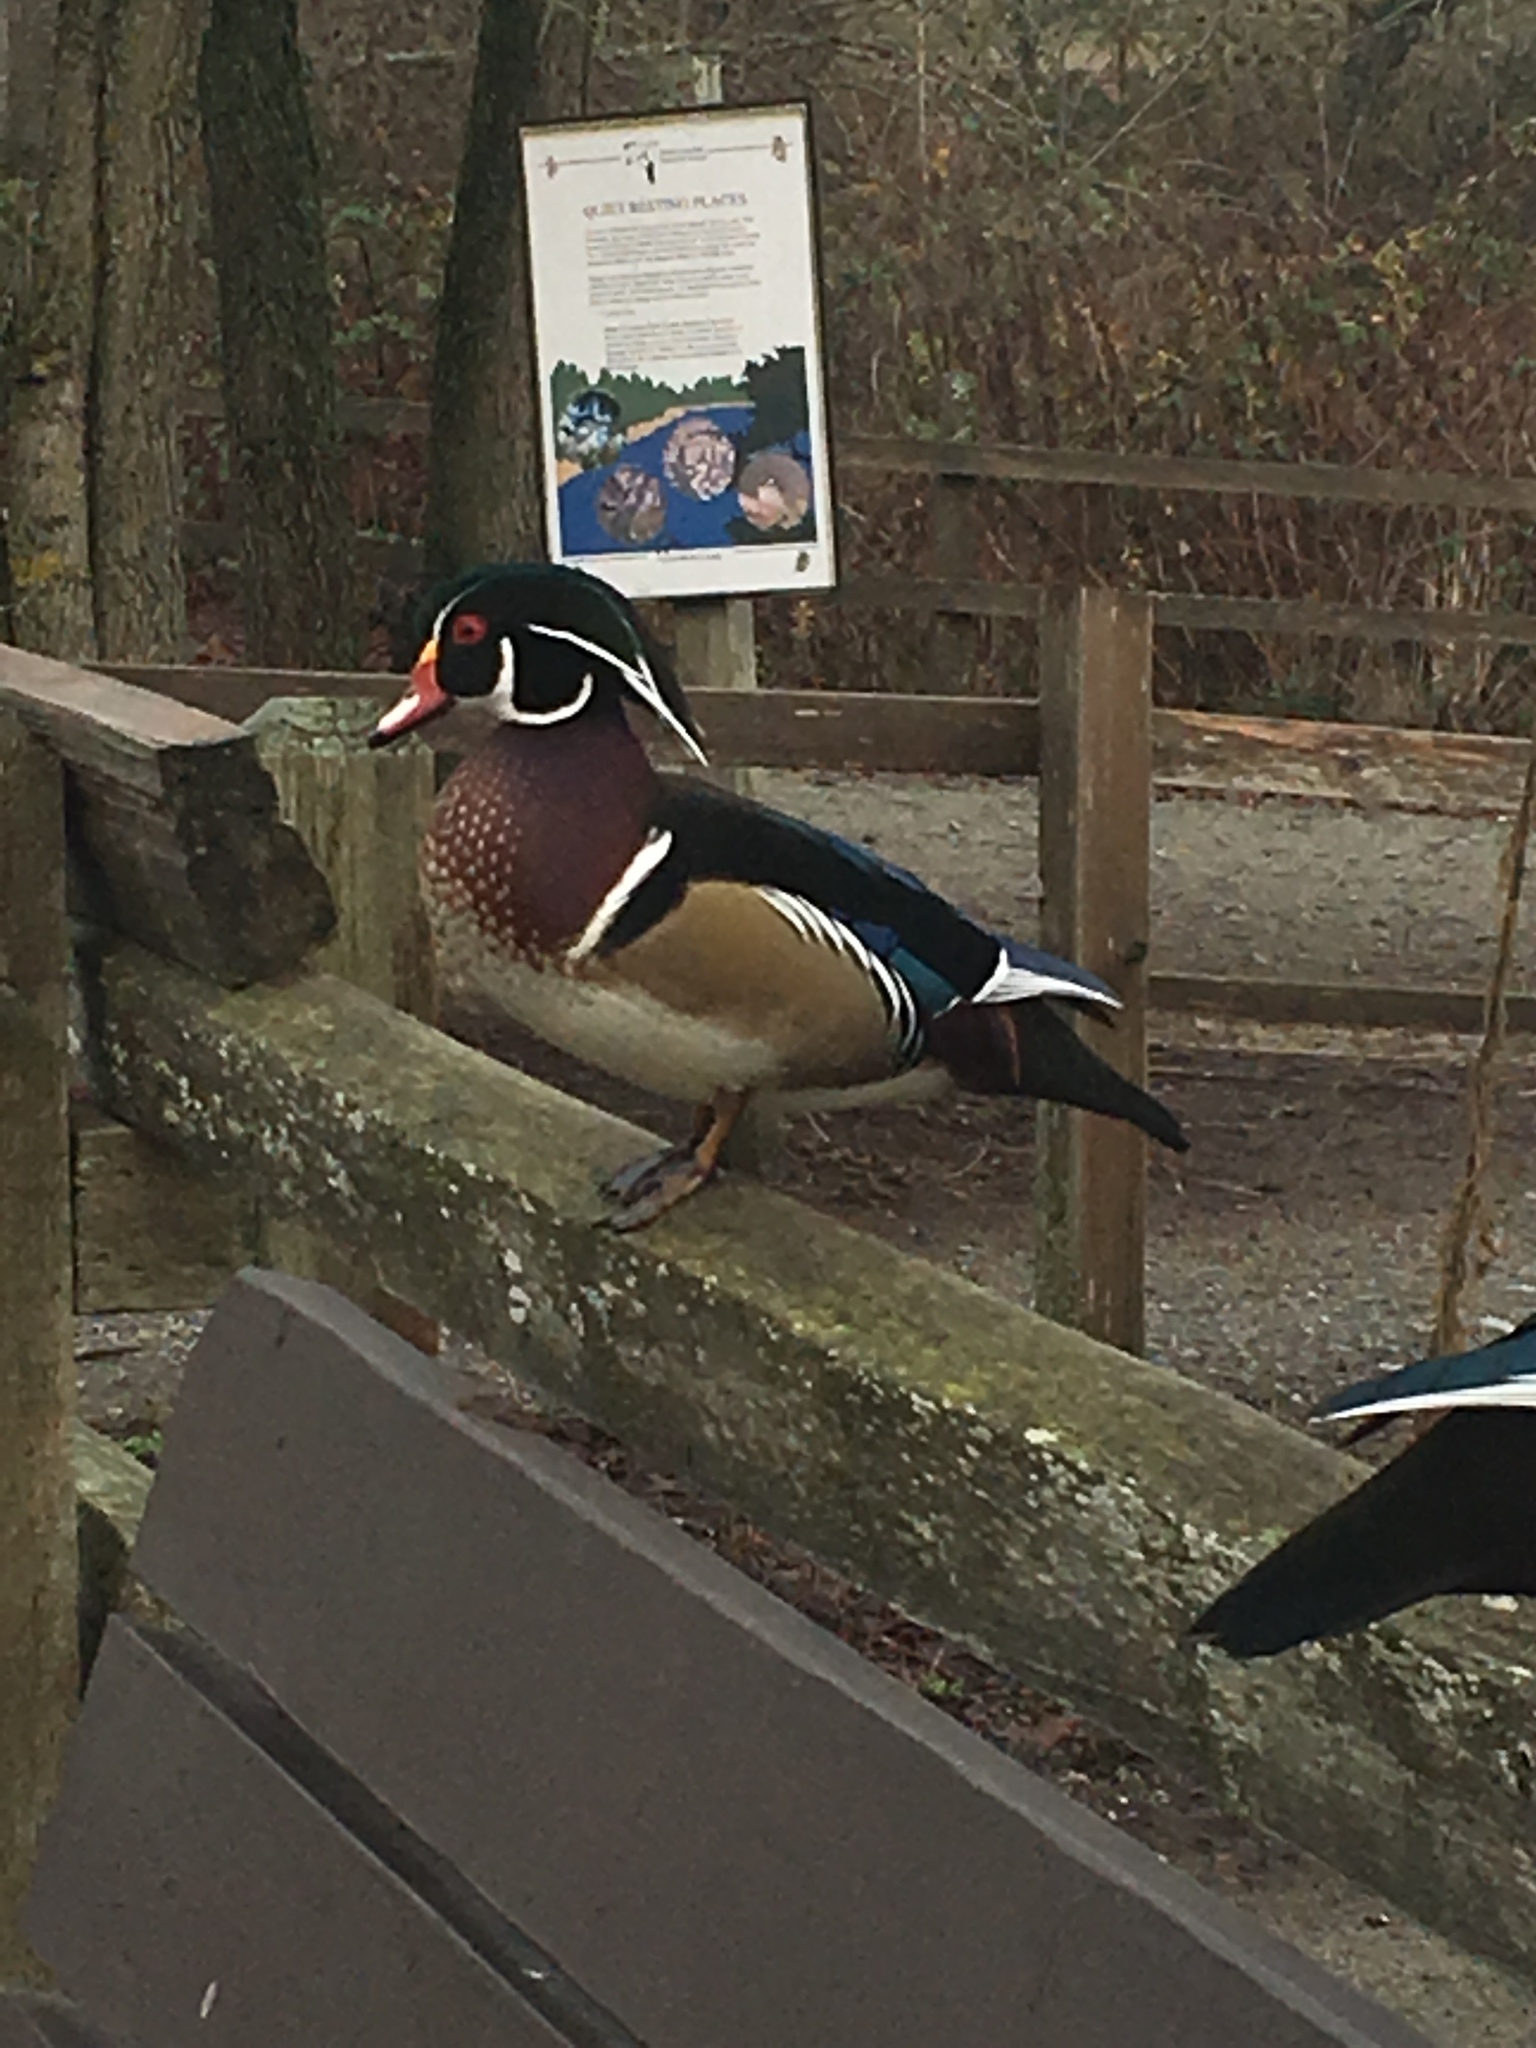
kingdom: Animalia
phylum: Chordata
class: Aves
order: Anseriformes
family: Anatidae
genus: Aix
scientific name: Aix sponsa
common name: Wood duck
